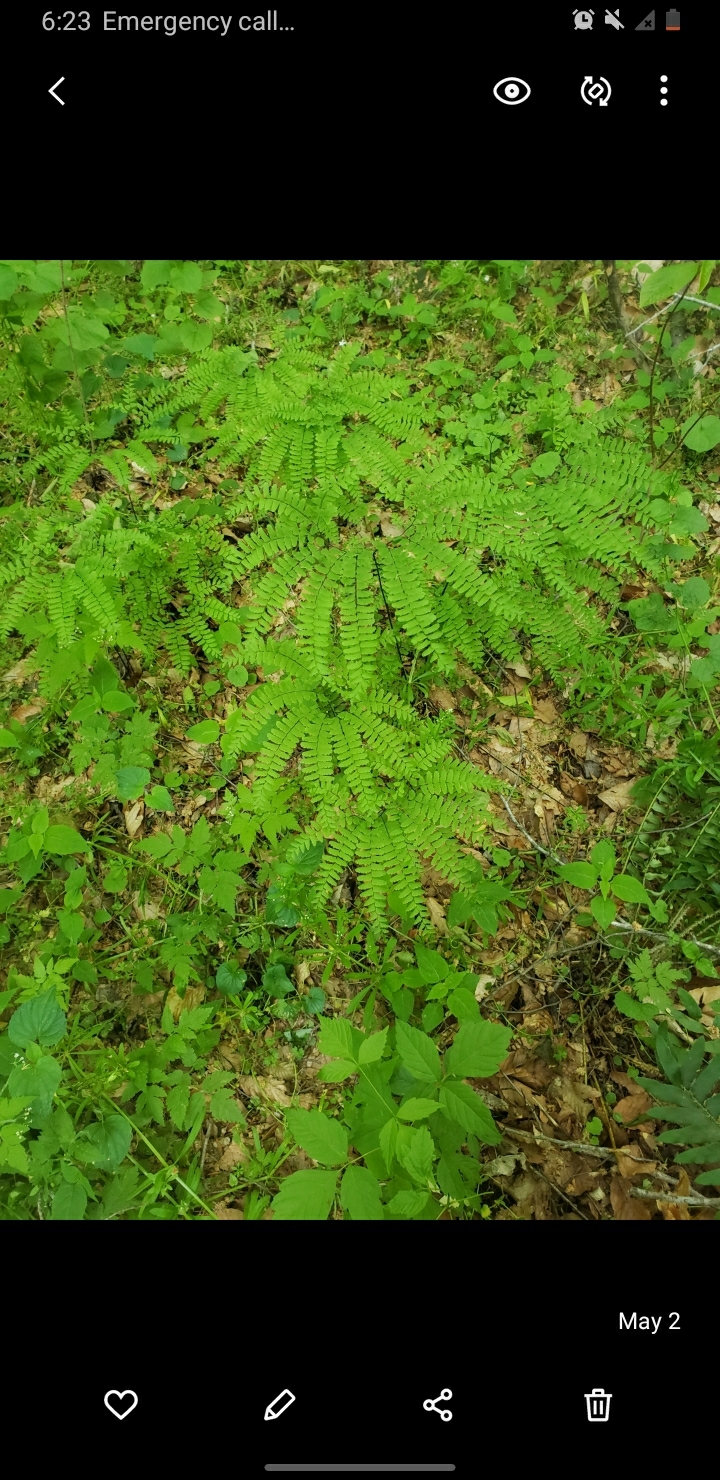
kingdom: Plantae
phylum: Tracheophyta
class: Polypodiopsida
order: Polypodiales
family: Pteridaceae
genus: Adiantum
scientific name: Adiantum pedatum
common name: Five-finger fern
